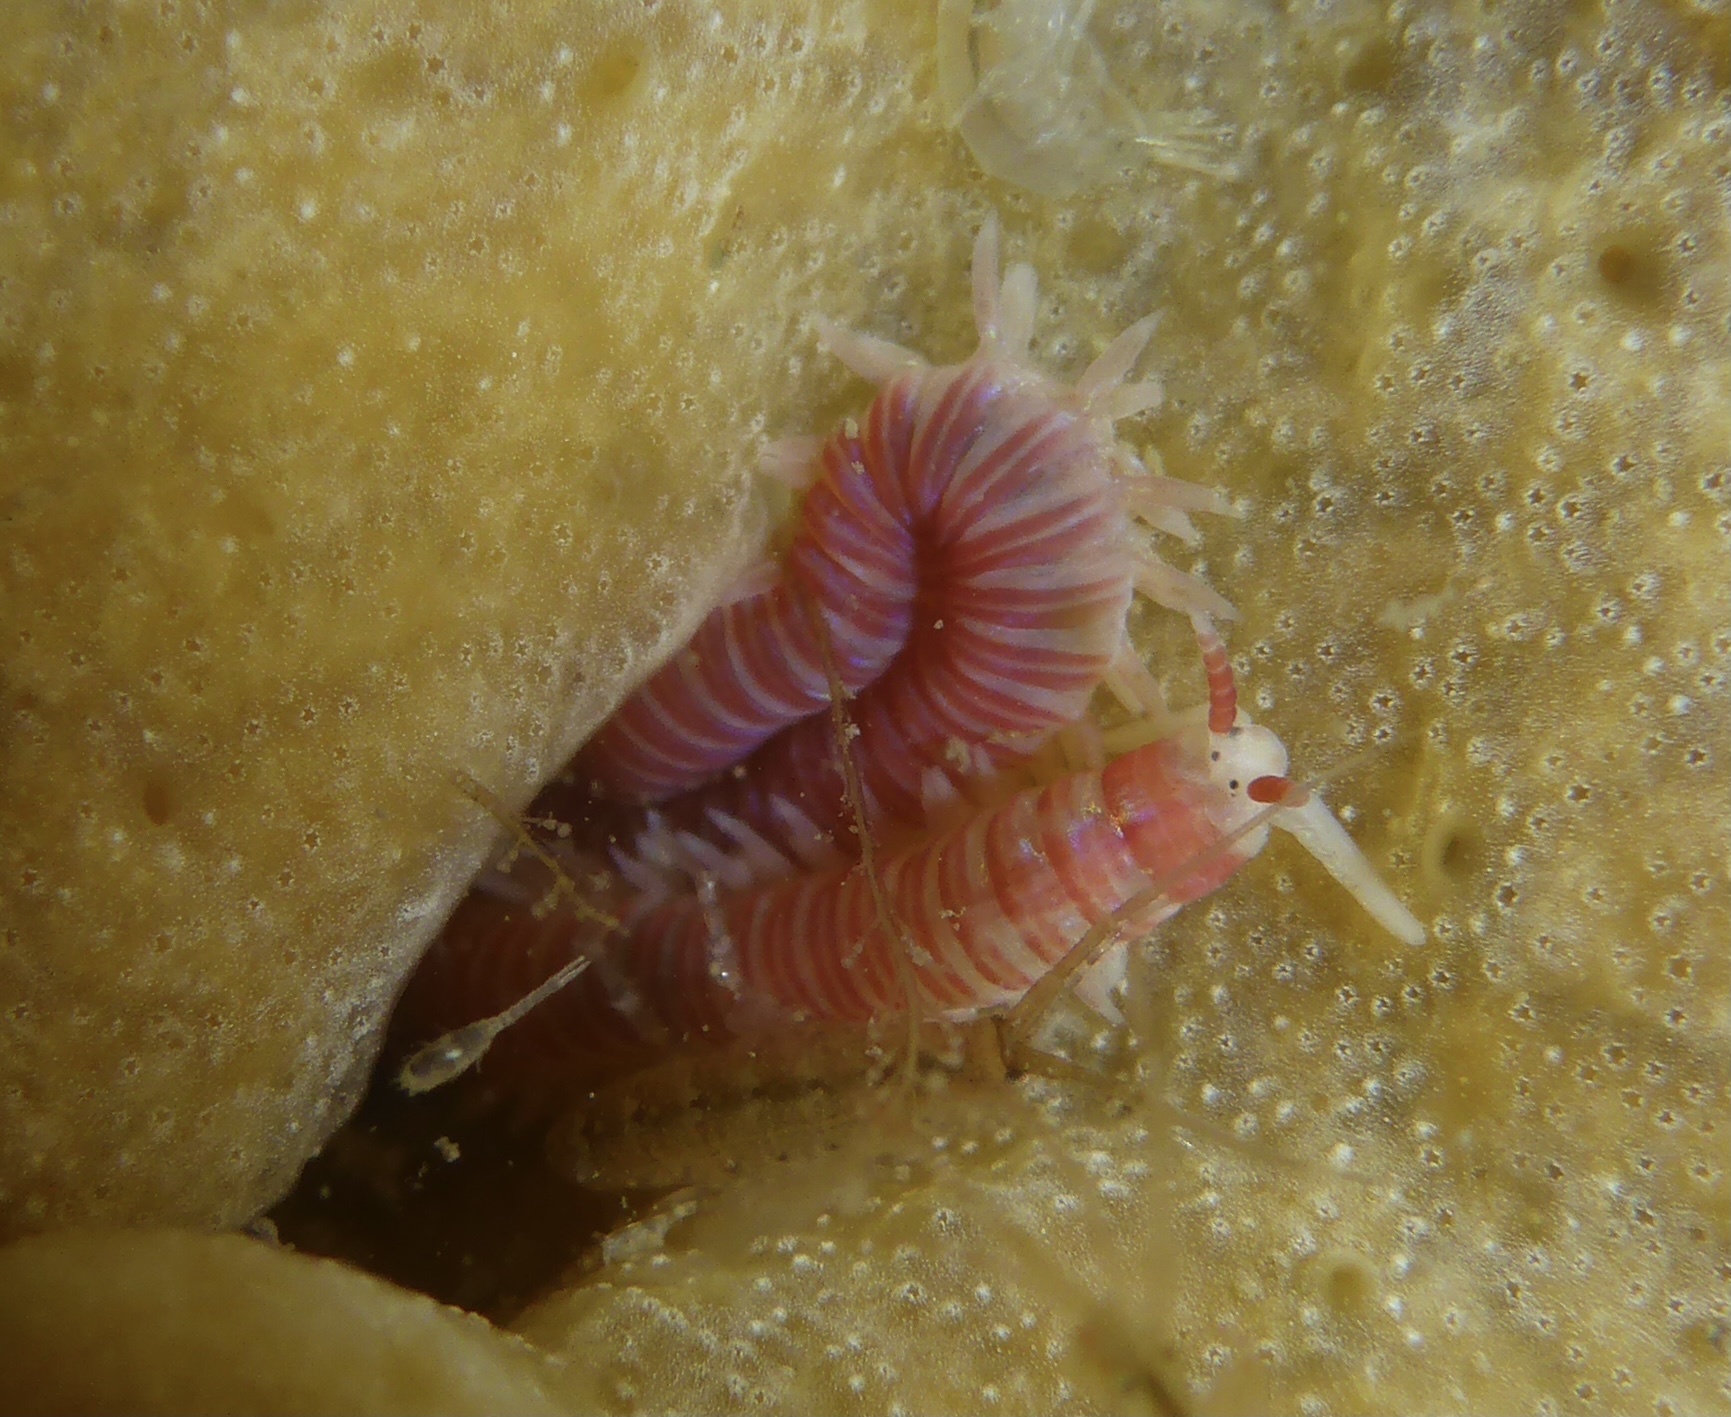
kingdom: Animalia
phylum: Annelida
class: Polychaeta
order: Eunicida
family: Dorvilleidae
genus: Dorvillea
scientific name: Dorvillea moniloceras
